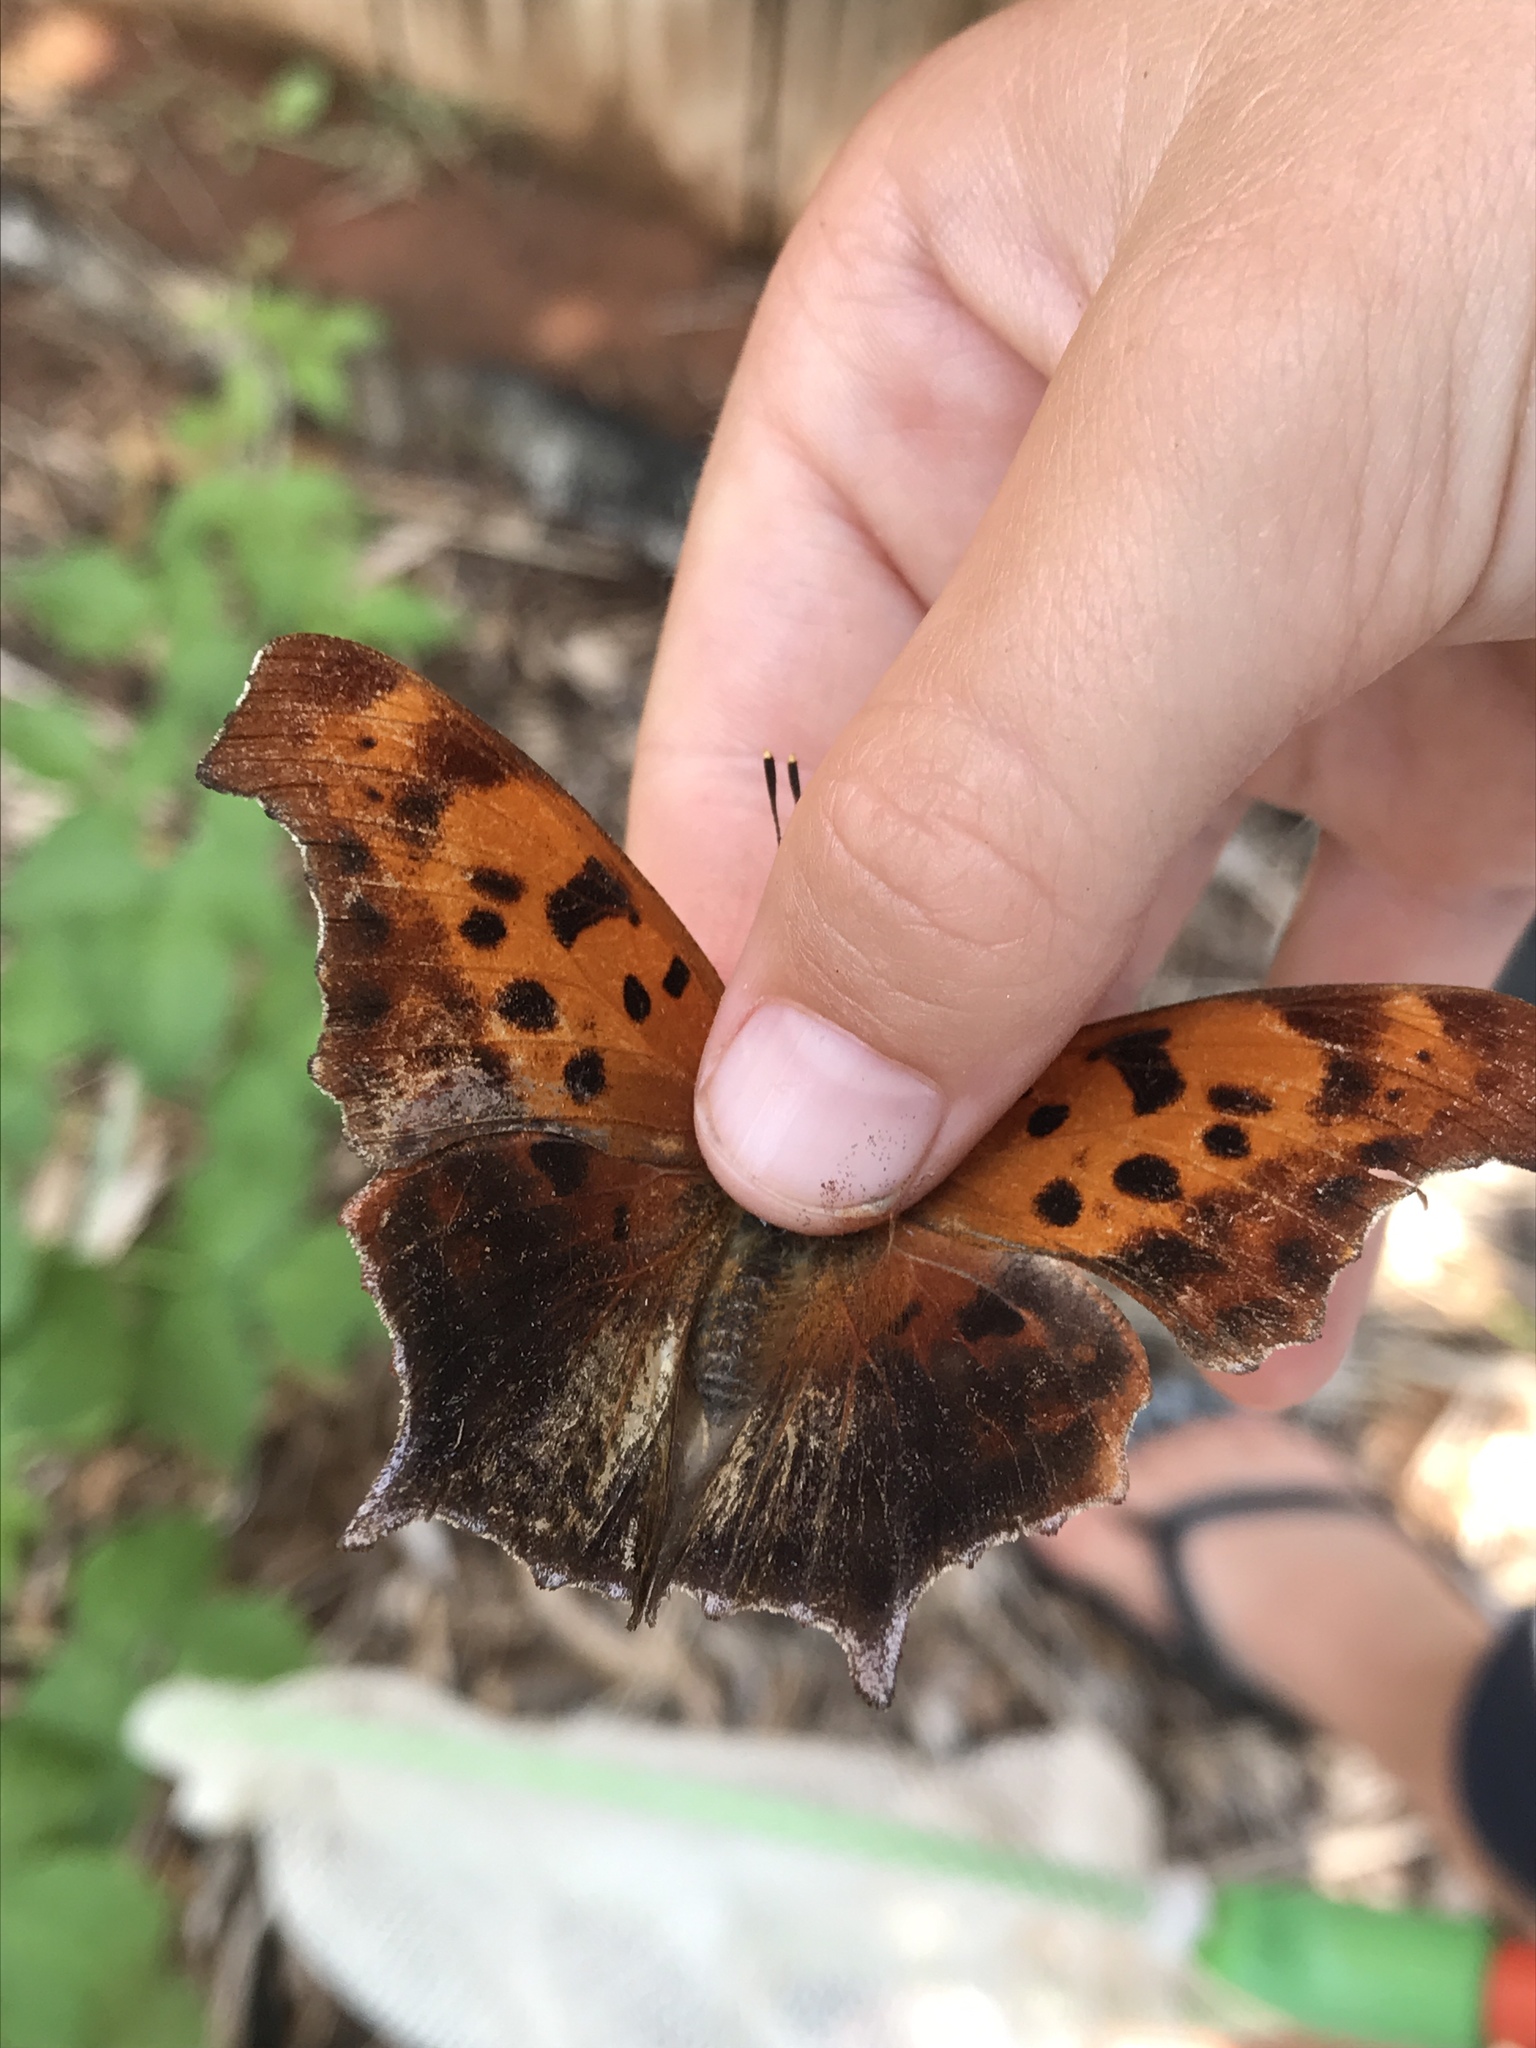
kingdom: Animalia
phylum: Arthropoda
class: Insecta
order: Lepidoptera
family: Nymphalidae
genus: Polygonia
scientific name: Polygonia interrogationis
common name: Question mark
